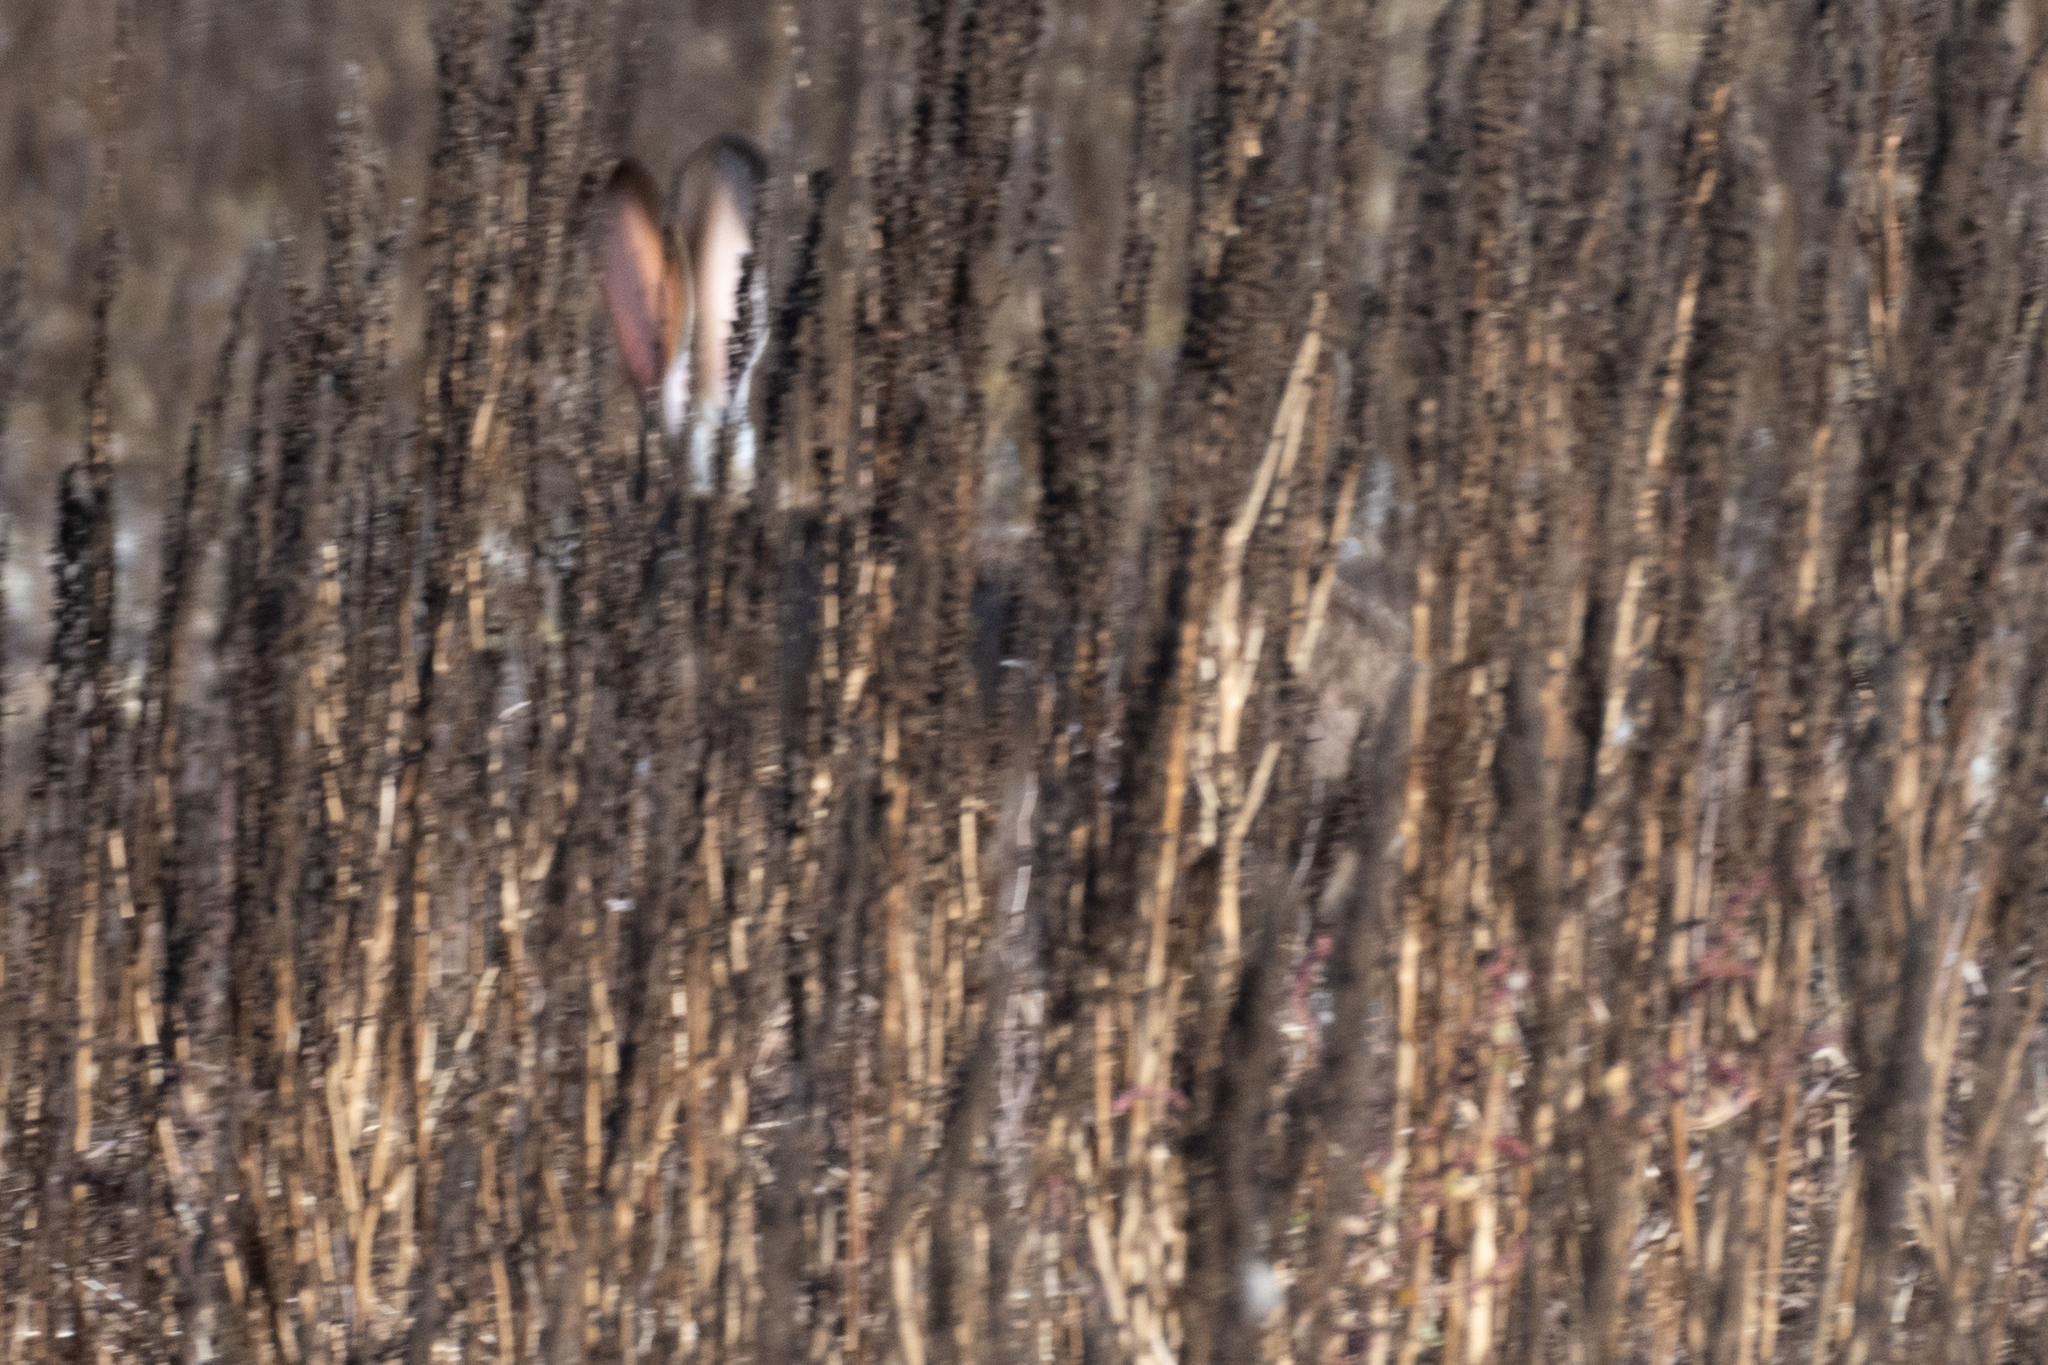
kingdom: Animalia
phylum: Chordata
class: Mammalia
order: Lagomorpha
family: Leporidae
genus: Lepus
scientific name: Lepus californicus
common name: Black-tailed jackrabbit
